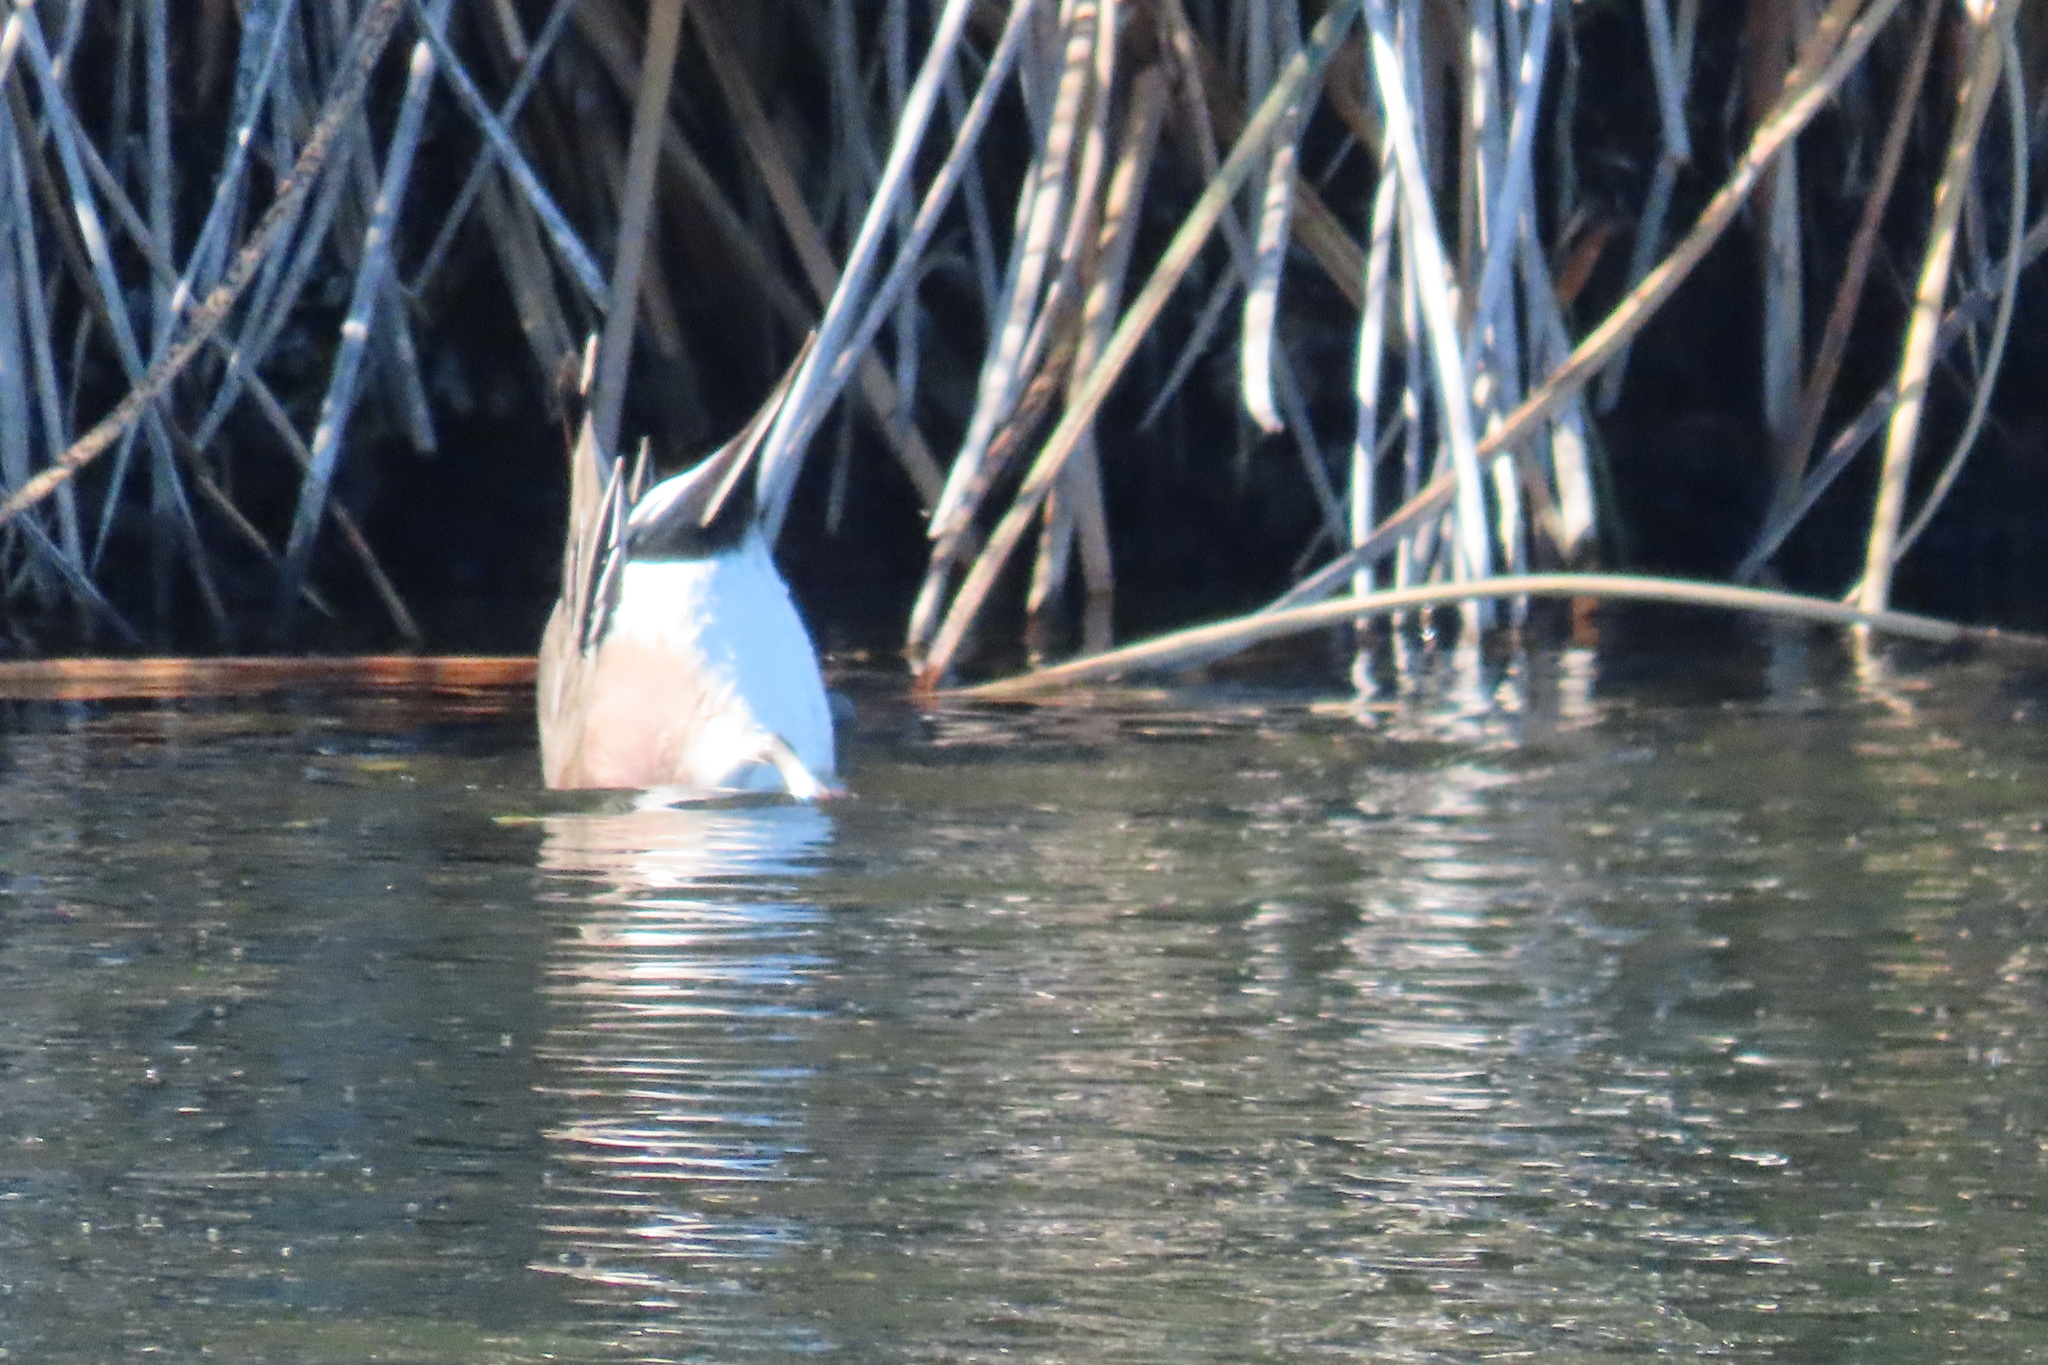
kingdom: Animalia
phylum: Chordata
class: Aves
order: Anseriformes
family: Anatidae
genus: Mareca
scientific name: Mareca americana
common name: American wigeon
